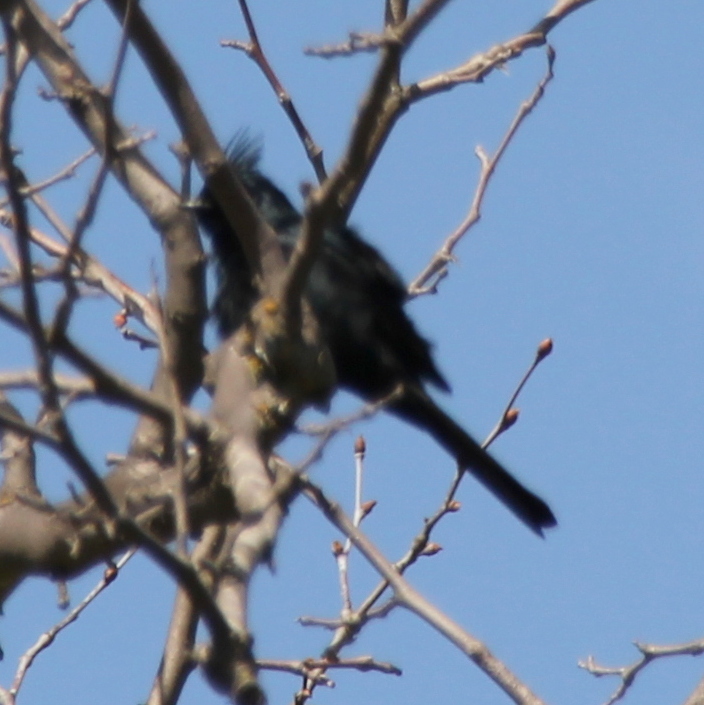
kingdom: Animalia
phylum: Chordata
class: Aves
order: Passeriformes
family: Ptilogonatidae
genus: Phainopepla
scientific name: Phainopepla nitens
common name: Phainopepla
